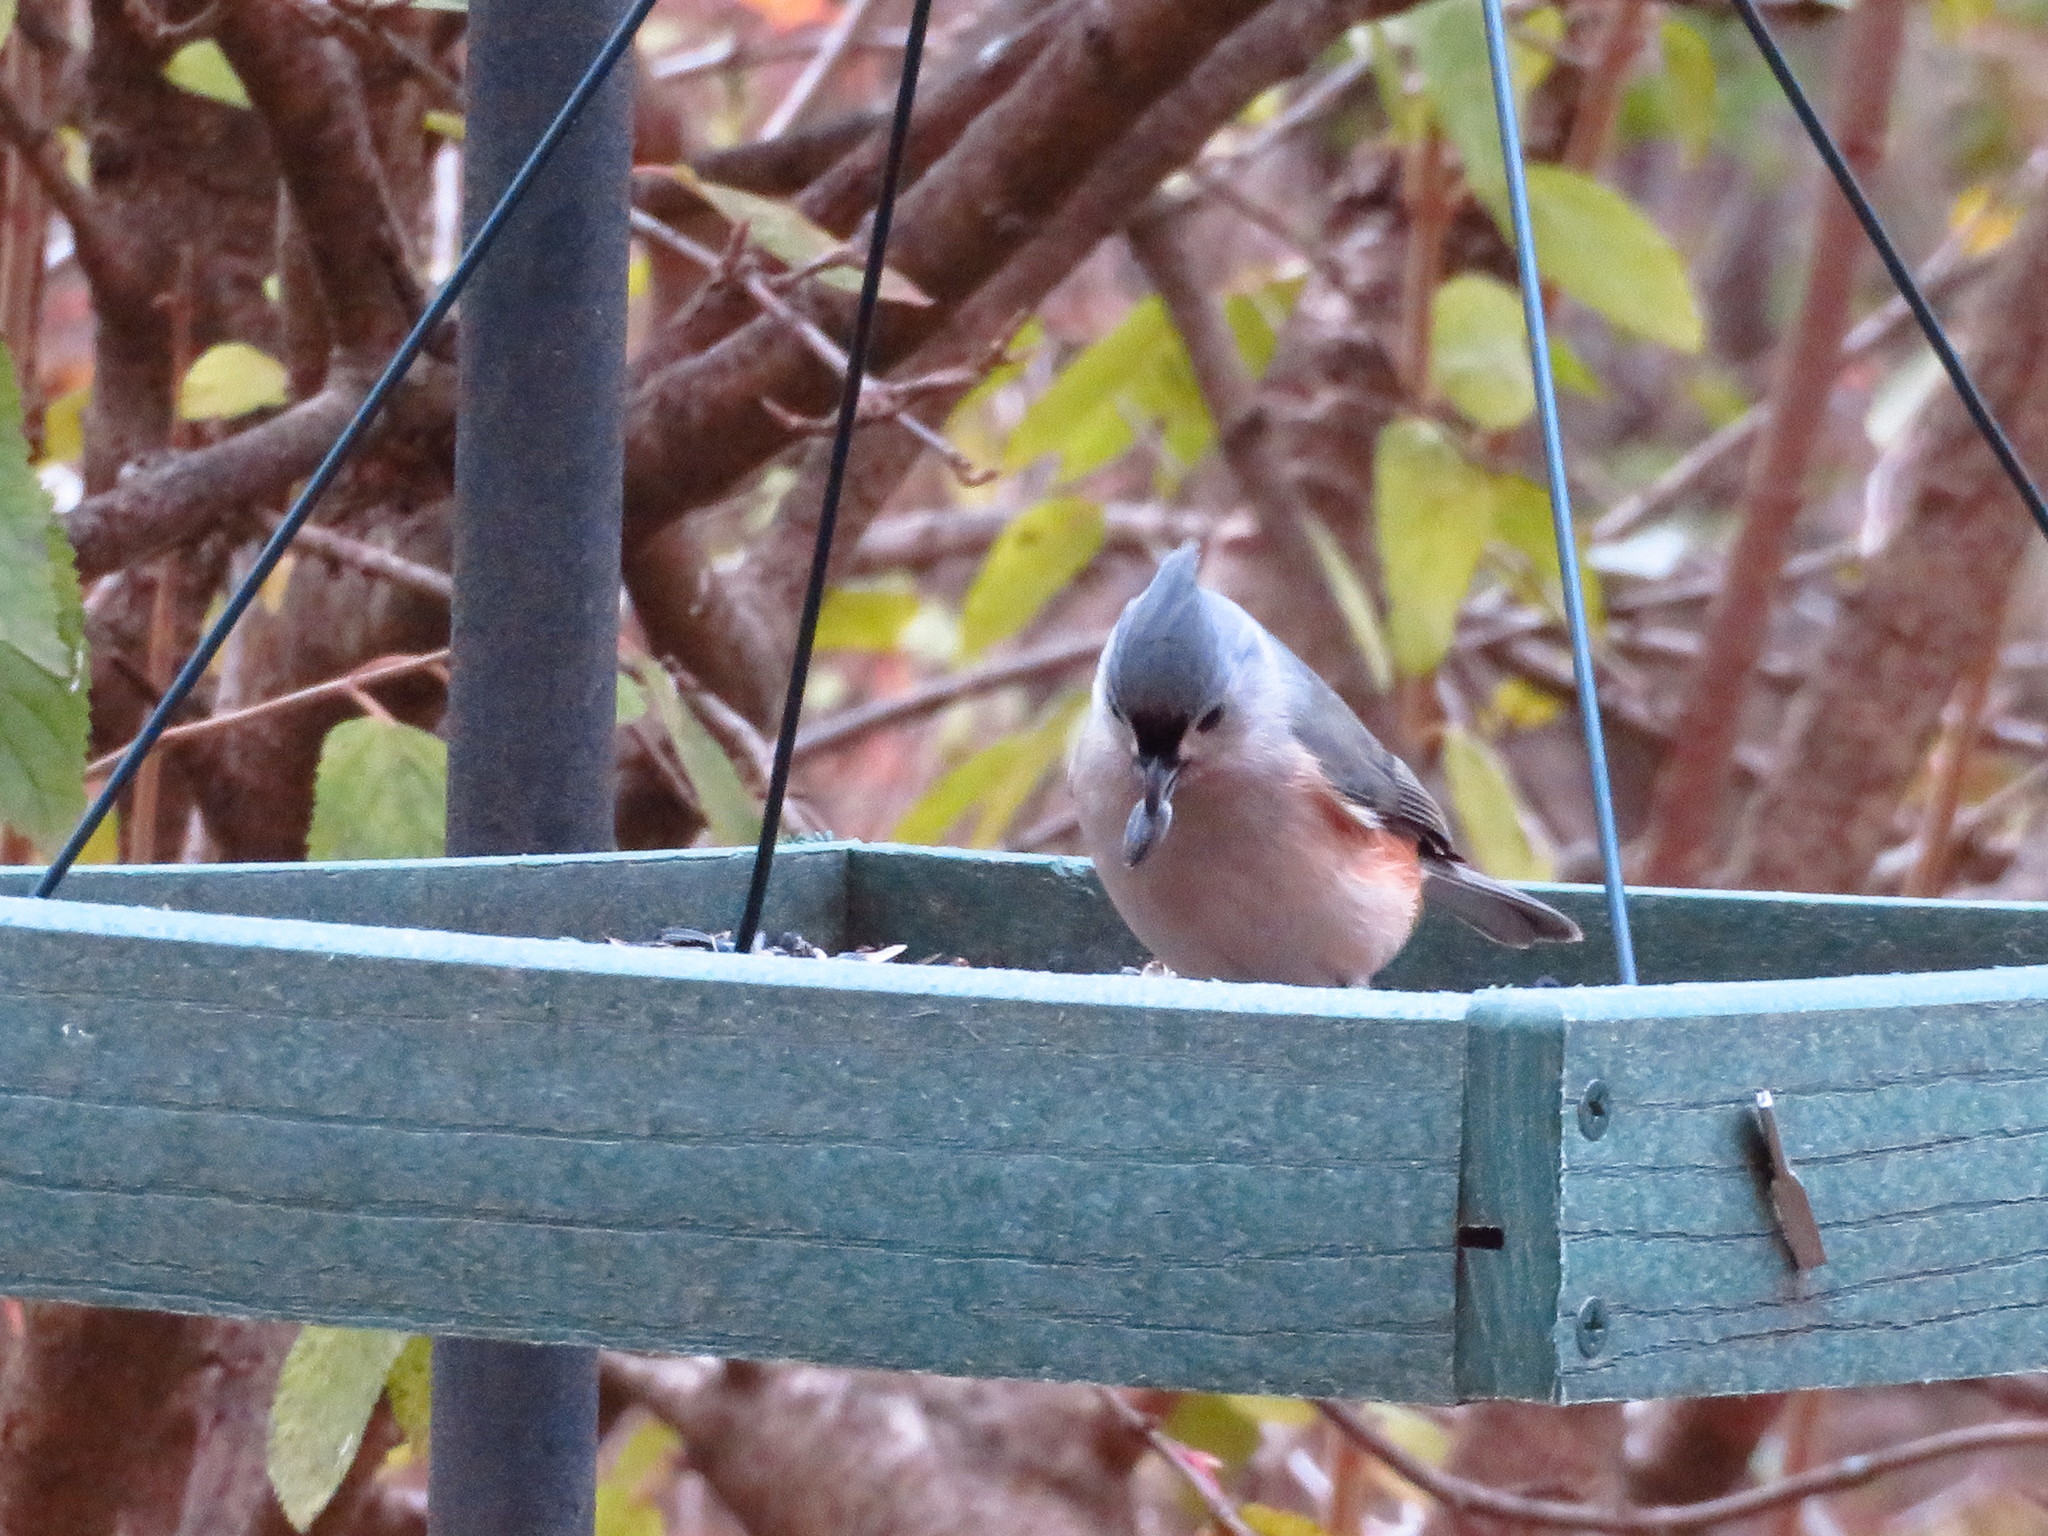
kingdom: Animalia
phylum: Chordata
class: Aves
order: Passeriformes
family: Paridae
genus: Baeolophus
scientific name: Baeolophus bicolor
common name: Tufted titmouse
